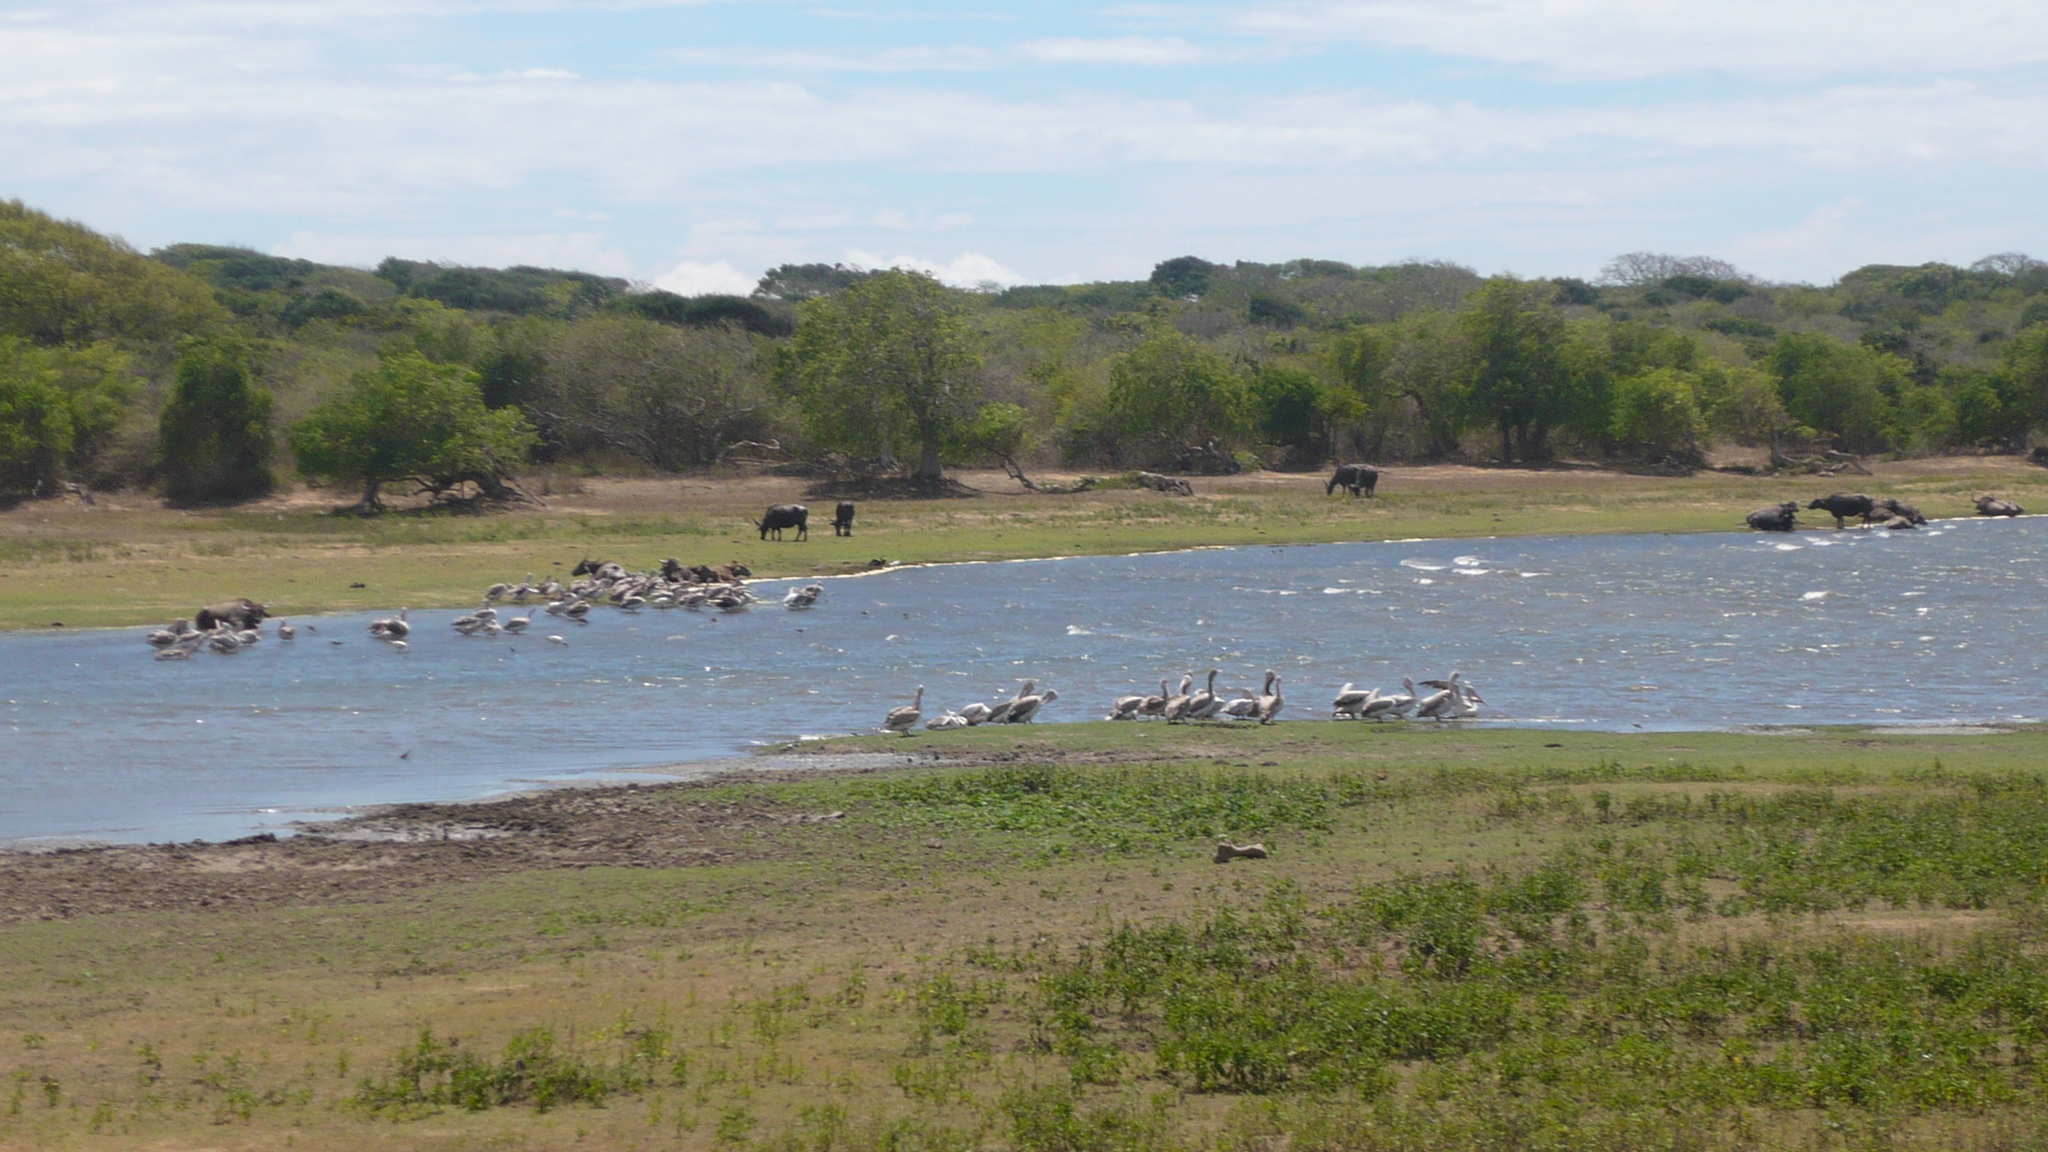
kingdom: Animalia
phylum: Chordata
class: Aves
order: Pelecaniformes
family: Pelecanidae
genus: Pelecanus
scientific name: Pelecanus philippensis
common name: Spot-billed pelican
